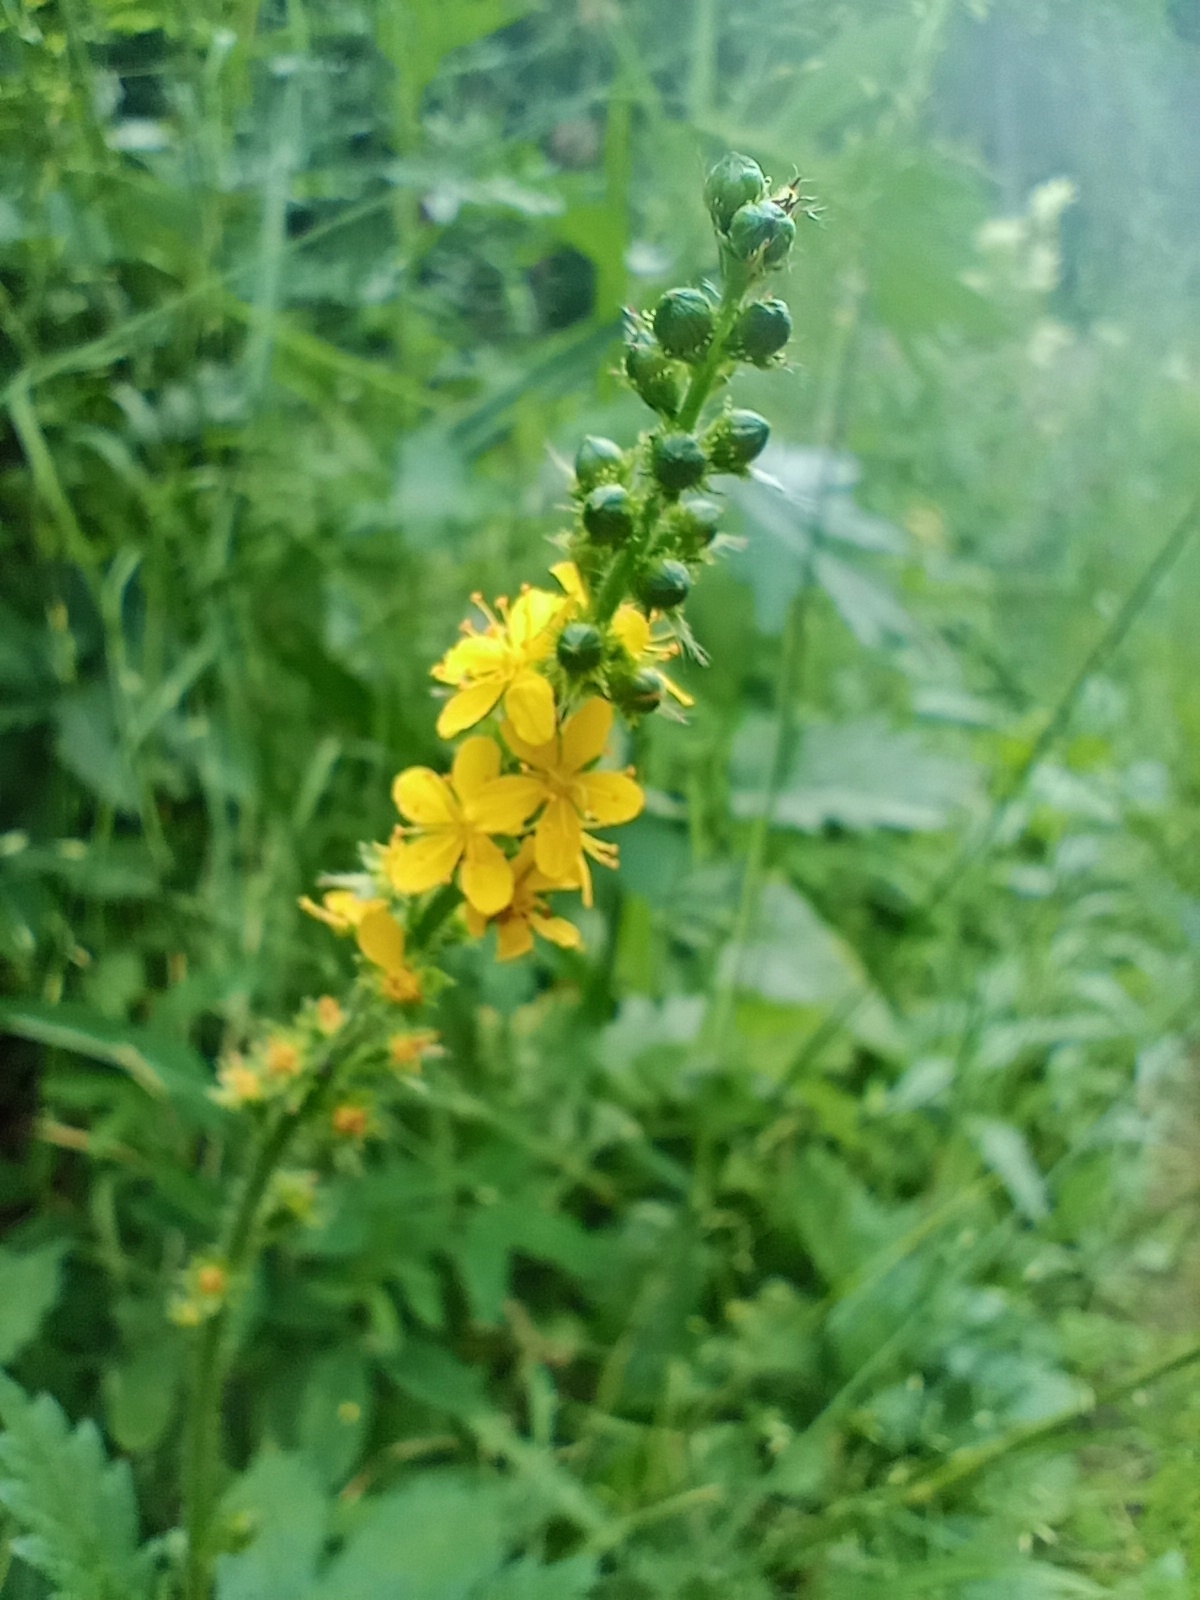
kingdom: Plantae
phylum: Tracheophyta
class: Magnoliopsida
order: Rosales
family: Rosaceae
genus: Agrimonia
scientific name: Agrimonia pilosa
